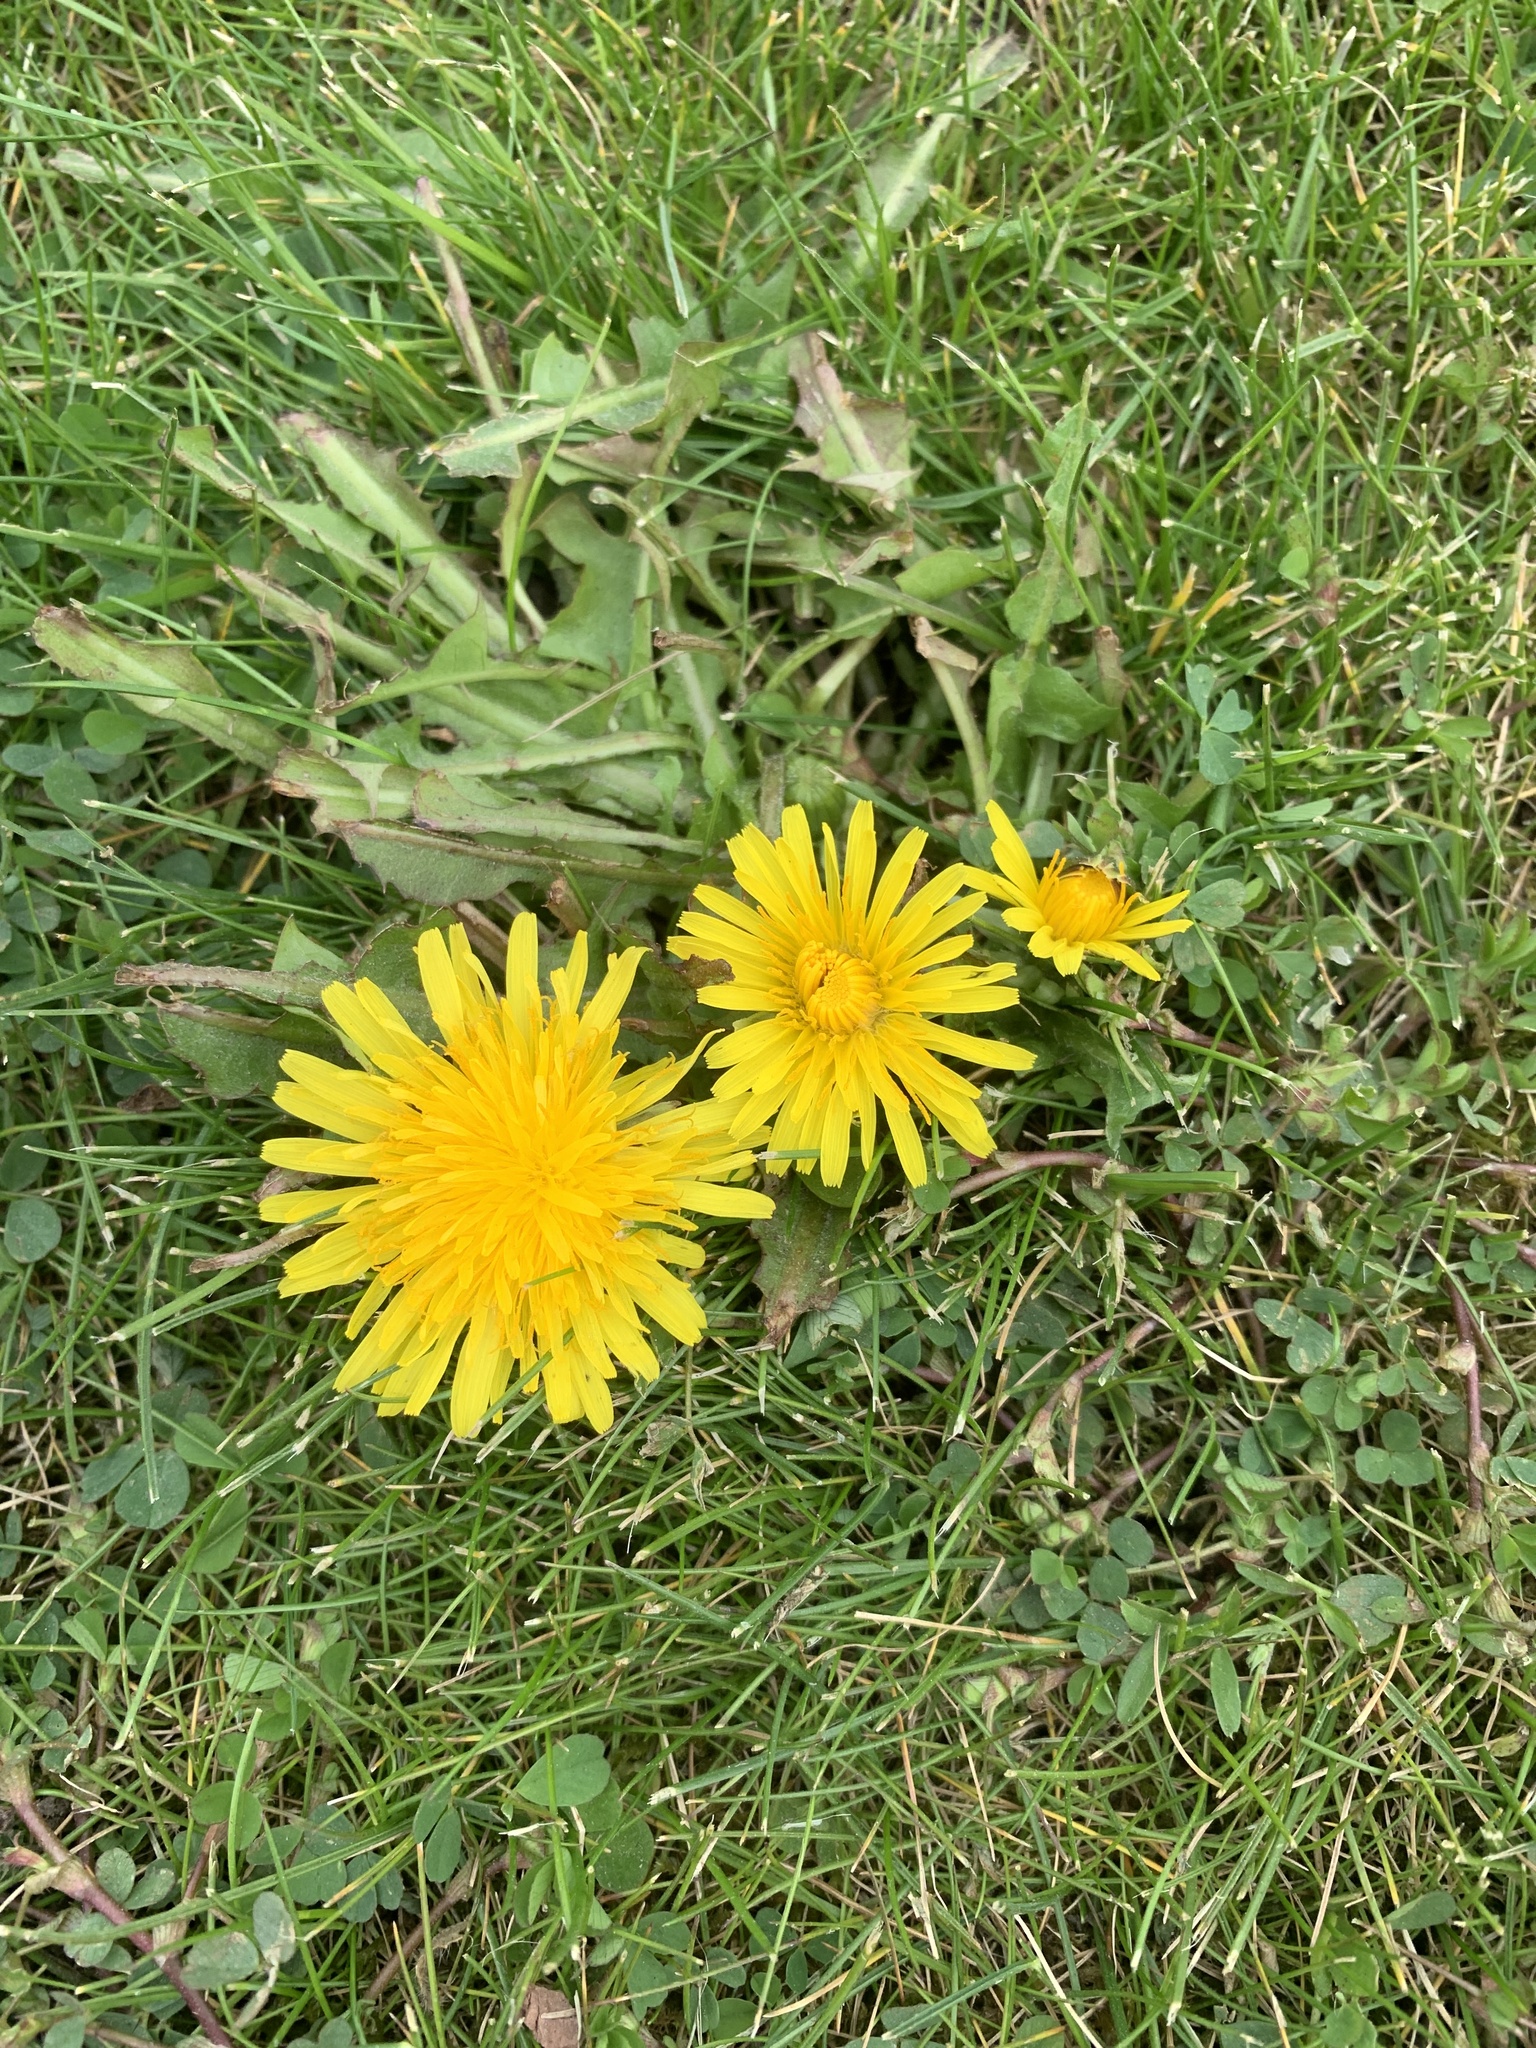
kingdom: Plantae
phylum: Tracheophyta
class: Magnoliopsida
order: Asterales
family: Asteraceae
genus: Taraxacum
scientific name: Taraxacum officinale
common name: Common dandelion
